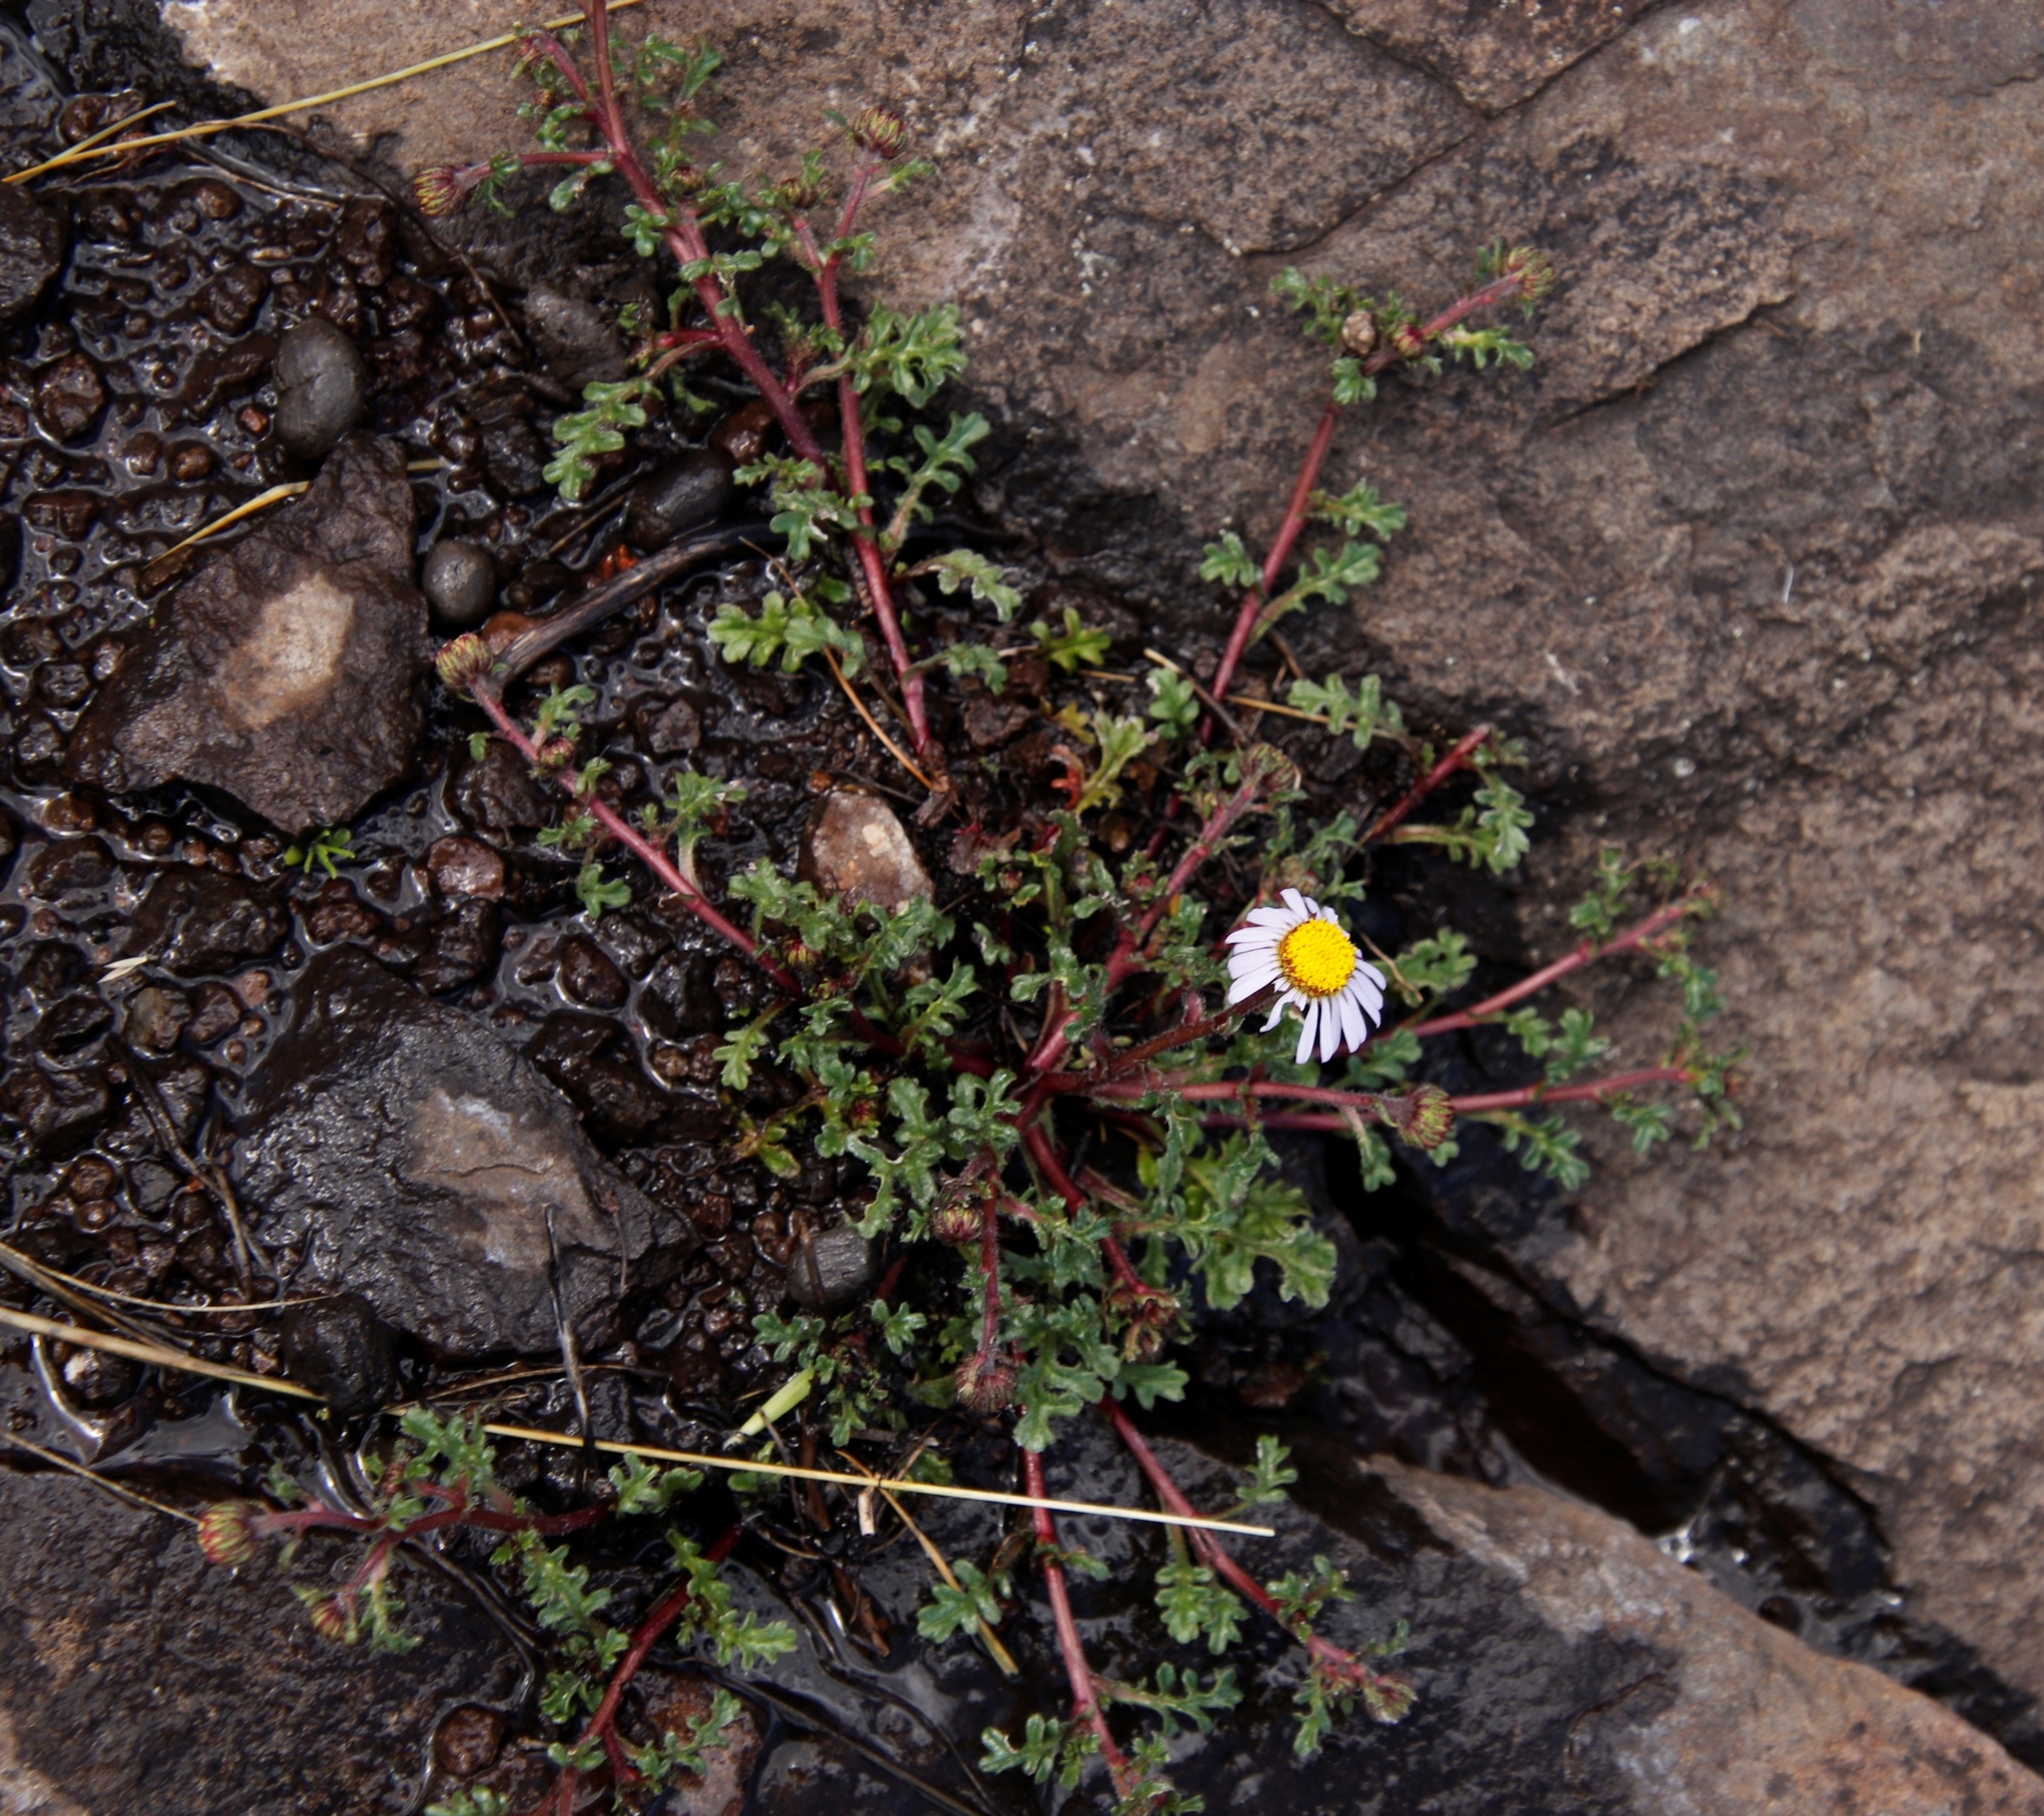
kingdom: Plantae
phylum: Tracheophyta
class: Magnoliopsida
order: Asterales
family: Asteraceae
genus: Afroaster
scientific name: Afroaster erucifolius
